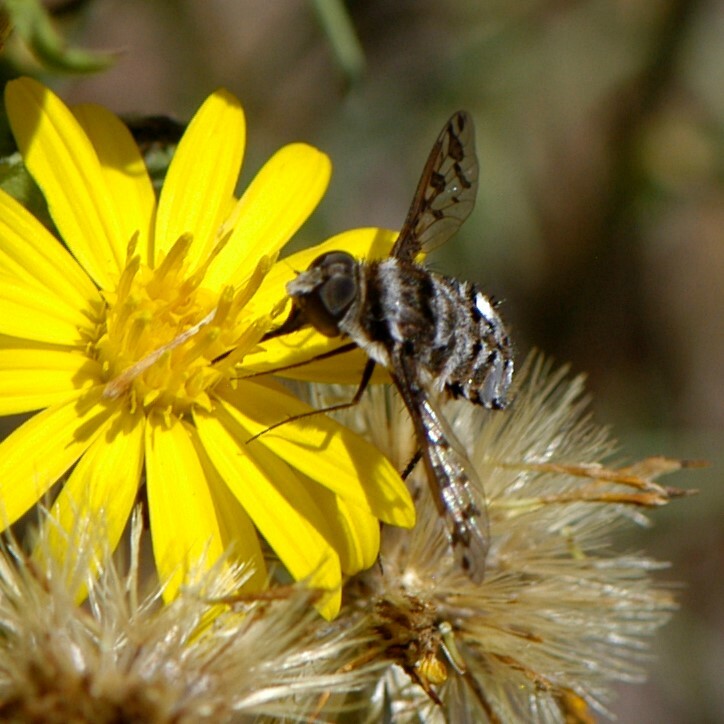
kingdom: Animalia
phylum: Arthropoda
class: Insecta
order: Diptera
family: Bombyliidae
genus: Lepidanthrax
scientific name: Lepidanthrax
